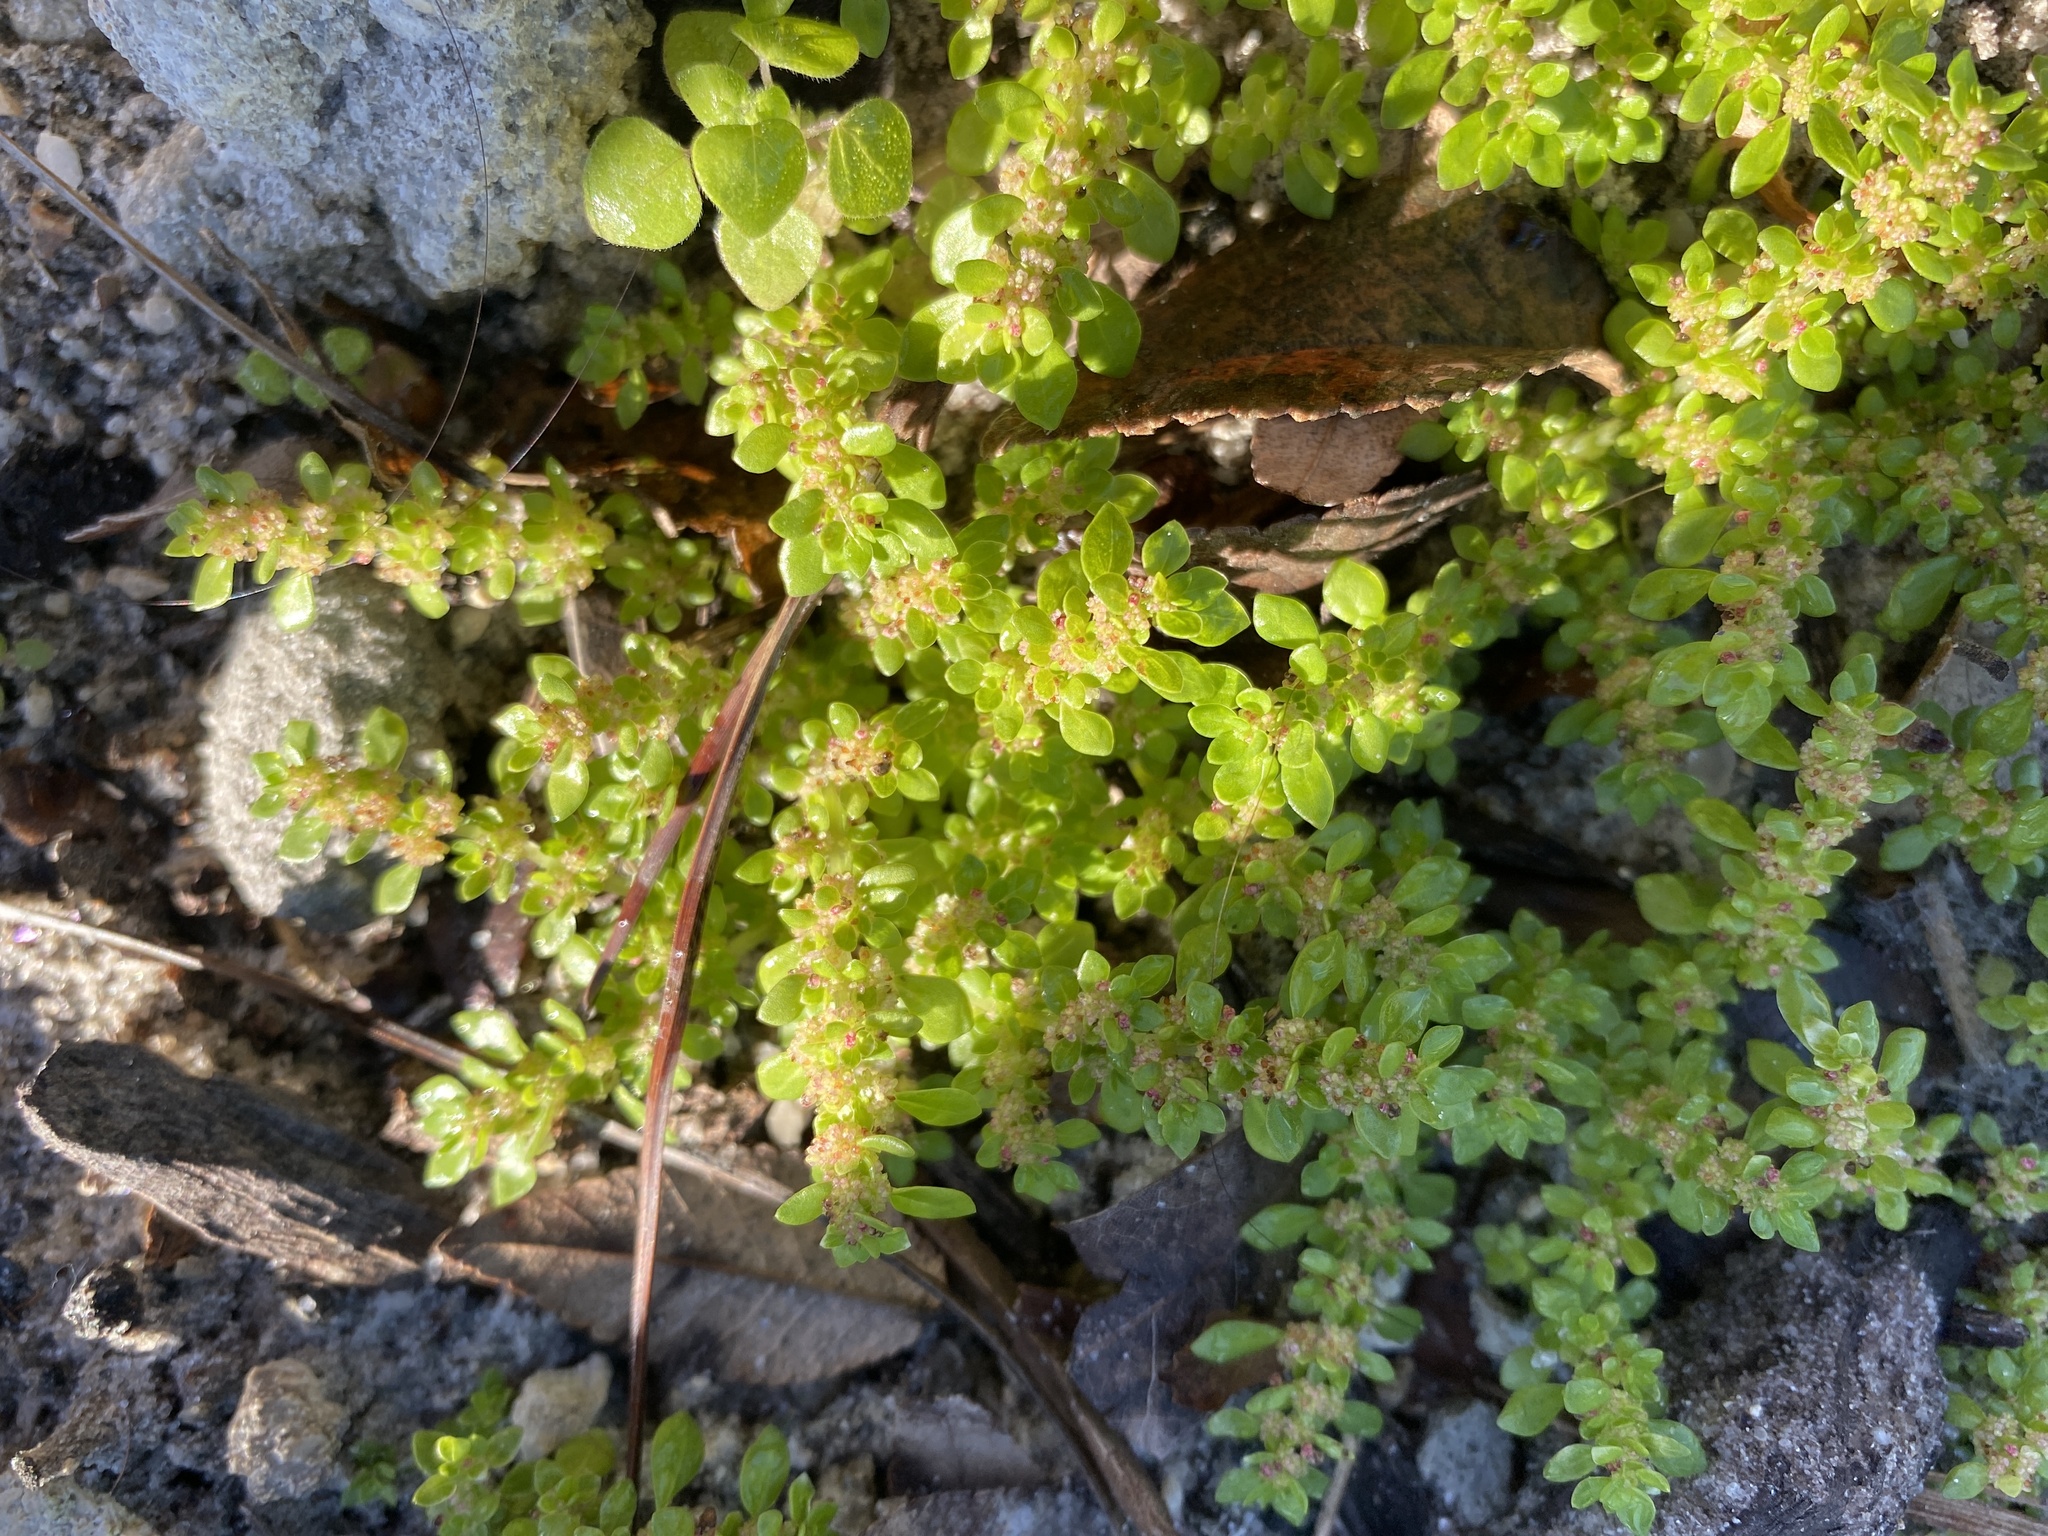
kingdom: Plantae
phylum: Tracheophyta
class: Magnoliopsida
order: Rosales
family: Urticaceae
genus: Pilea
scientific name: Pilea microphylla
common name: Artillery-plant
